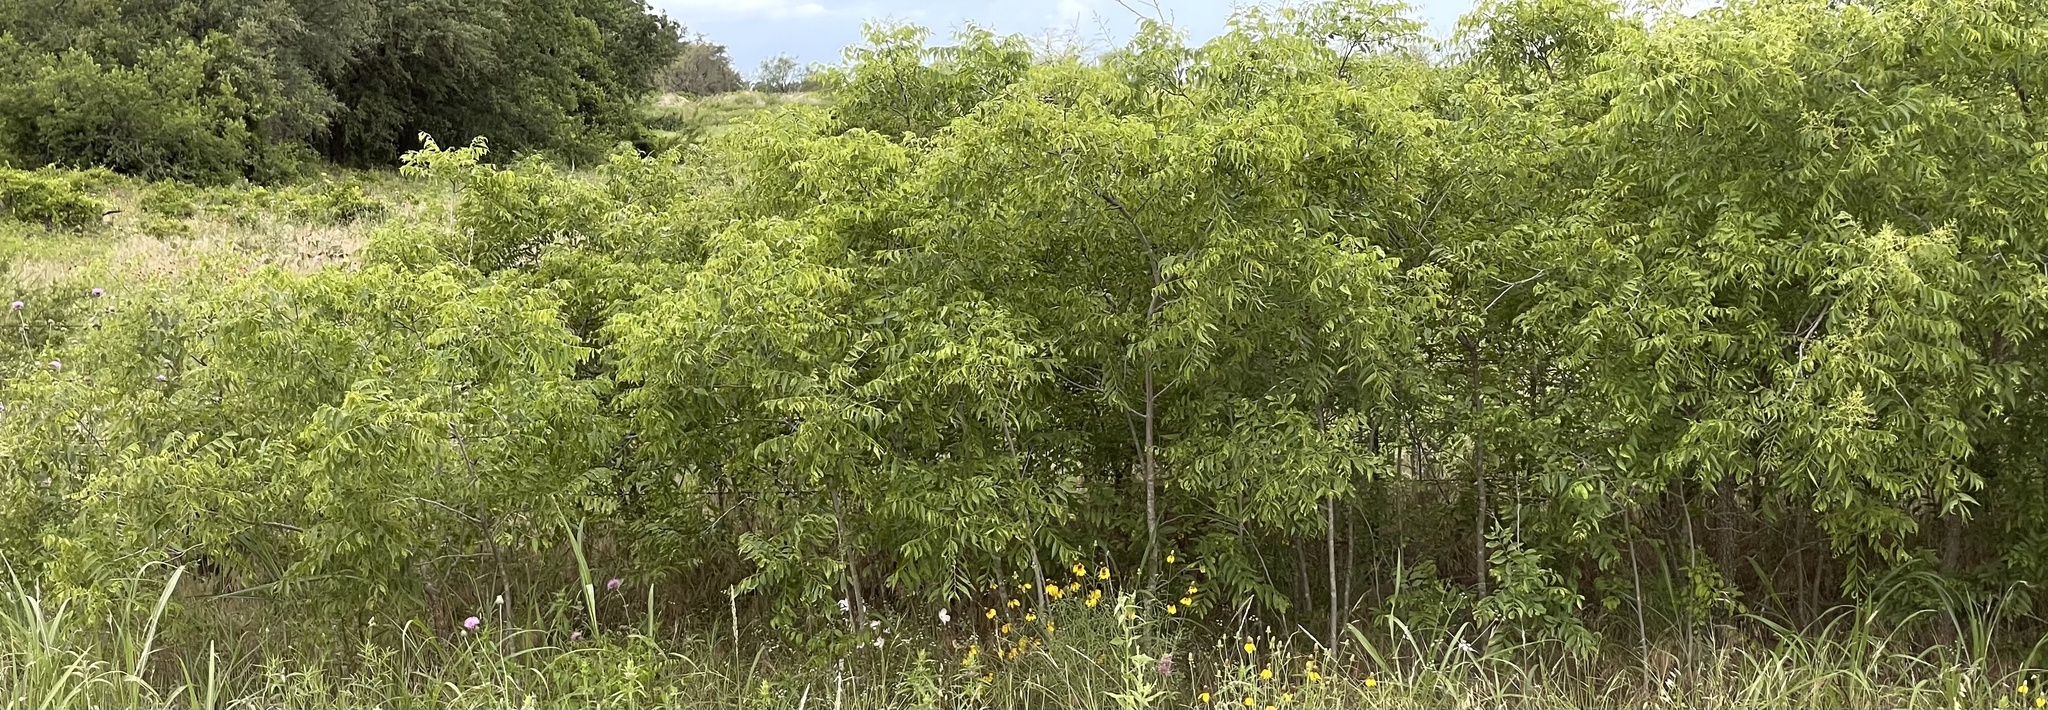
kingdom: Plantae
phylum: Tracheophyta
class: Magnoliopsida
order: Sapindales
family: Sapindaceae
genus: Sapindus
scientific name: Sapindus drummondii
